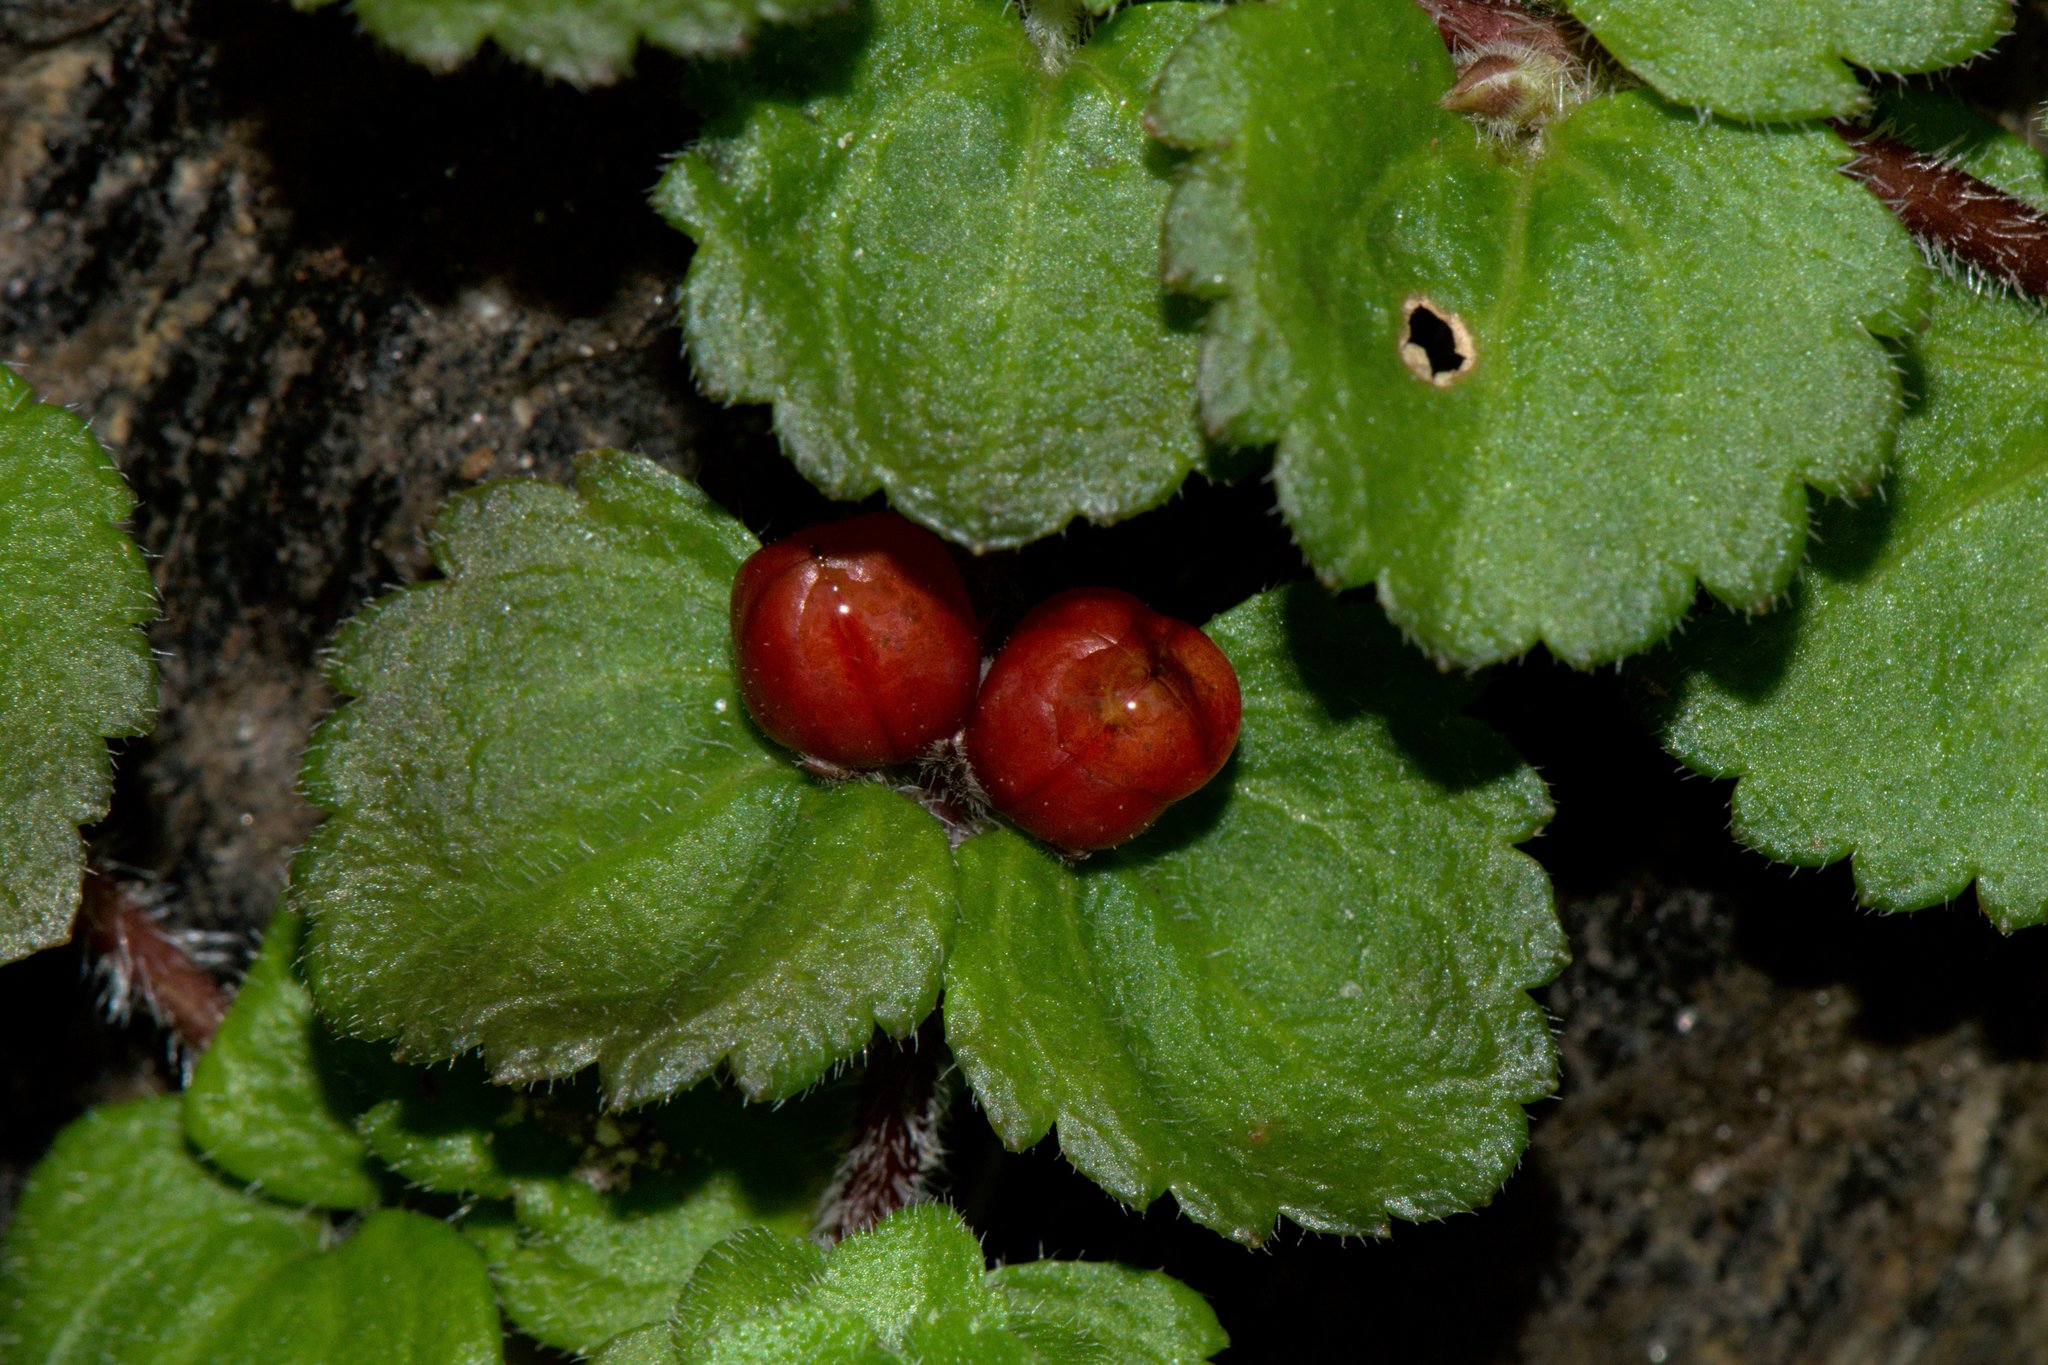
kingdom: Plantae
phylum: Tracheophyta
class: Magnoliopsida
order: Lamiales
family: Plantaginaceae
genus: Hemiphragma
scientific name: Hemiphragma heterophyllum
